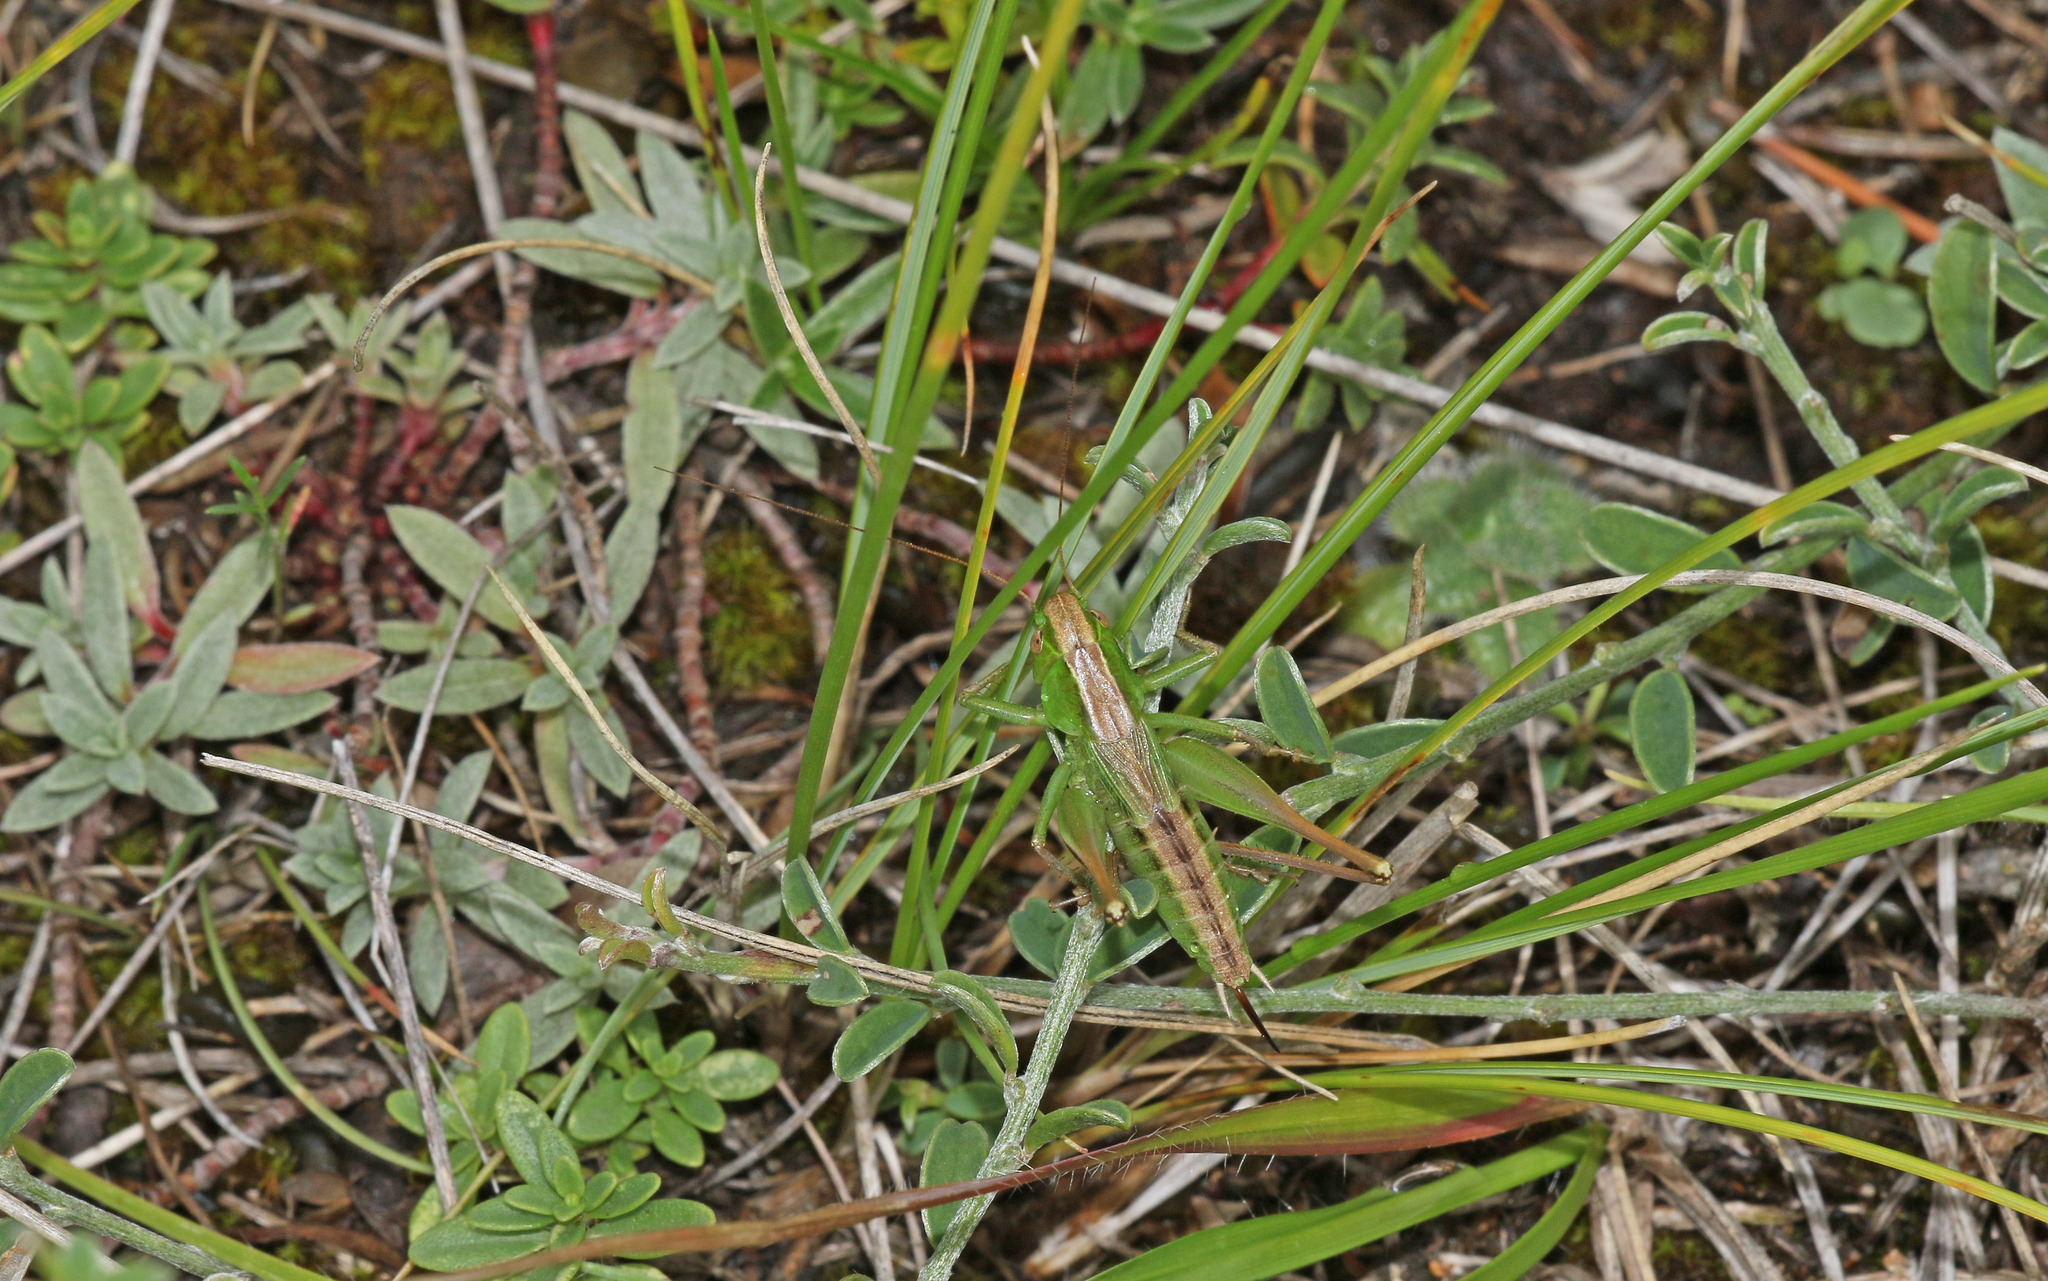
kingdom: Animalia
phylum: Arthropoda
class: Insecta
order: Orthoptera
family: Tettigoniidae
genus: Bicolorana
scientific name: Bicolorana bicolor
